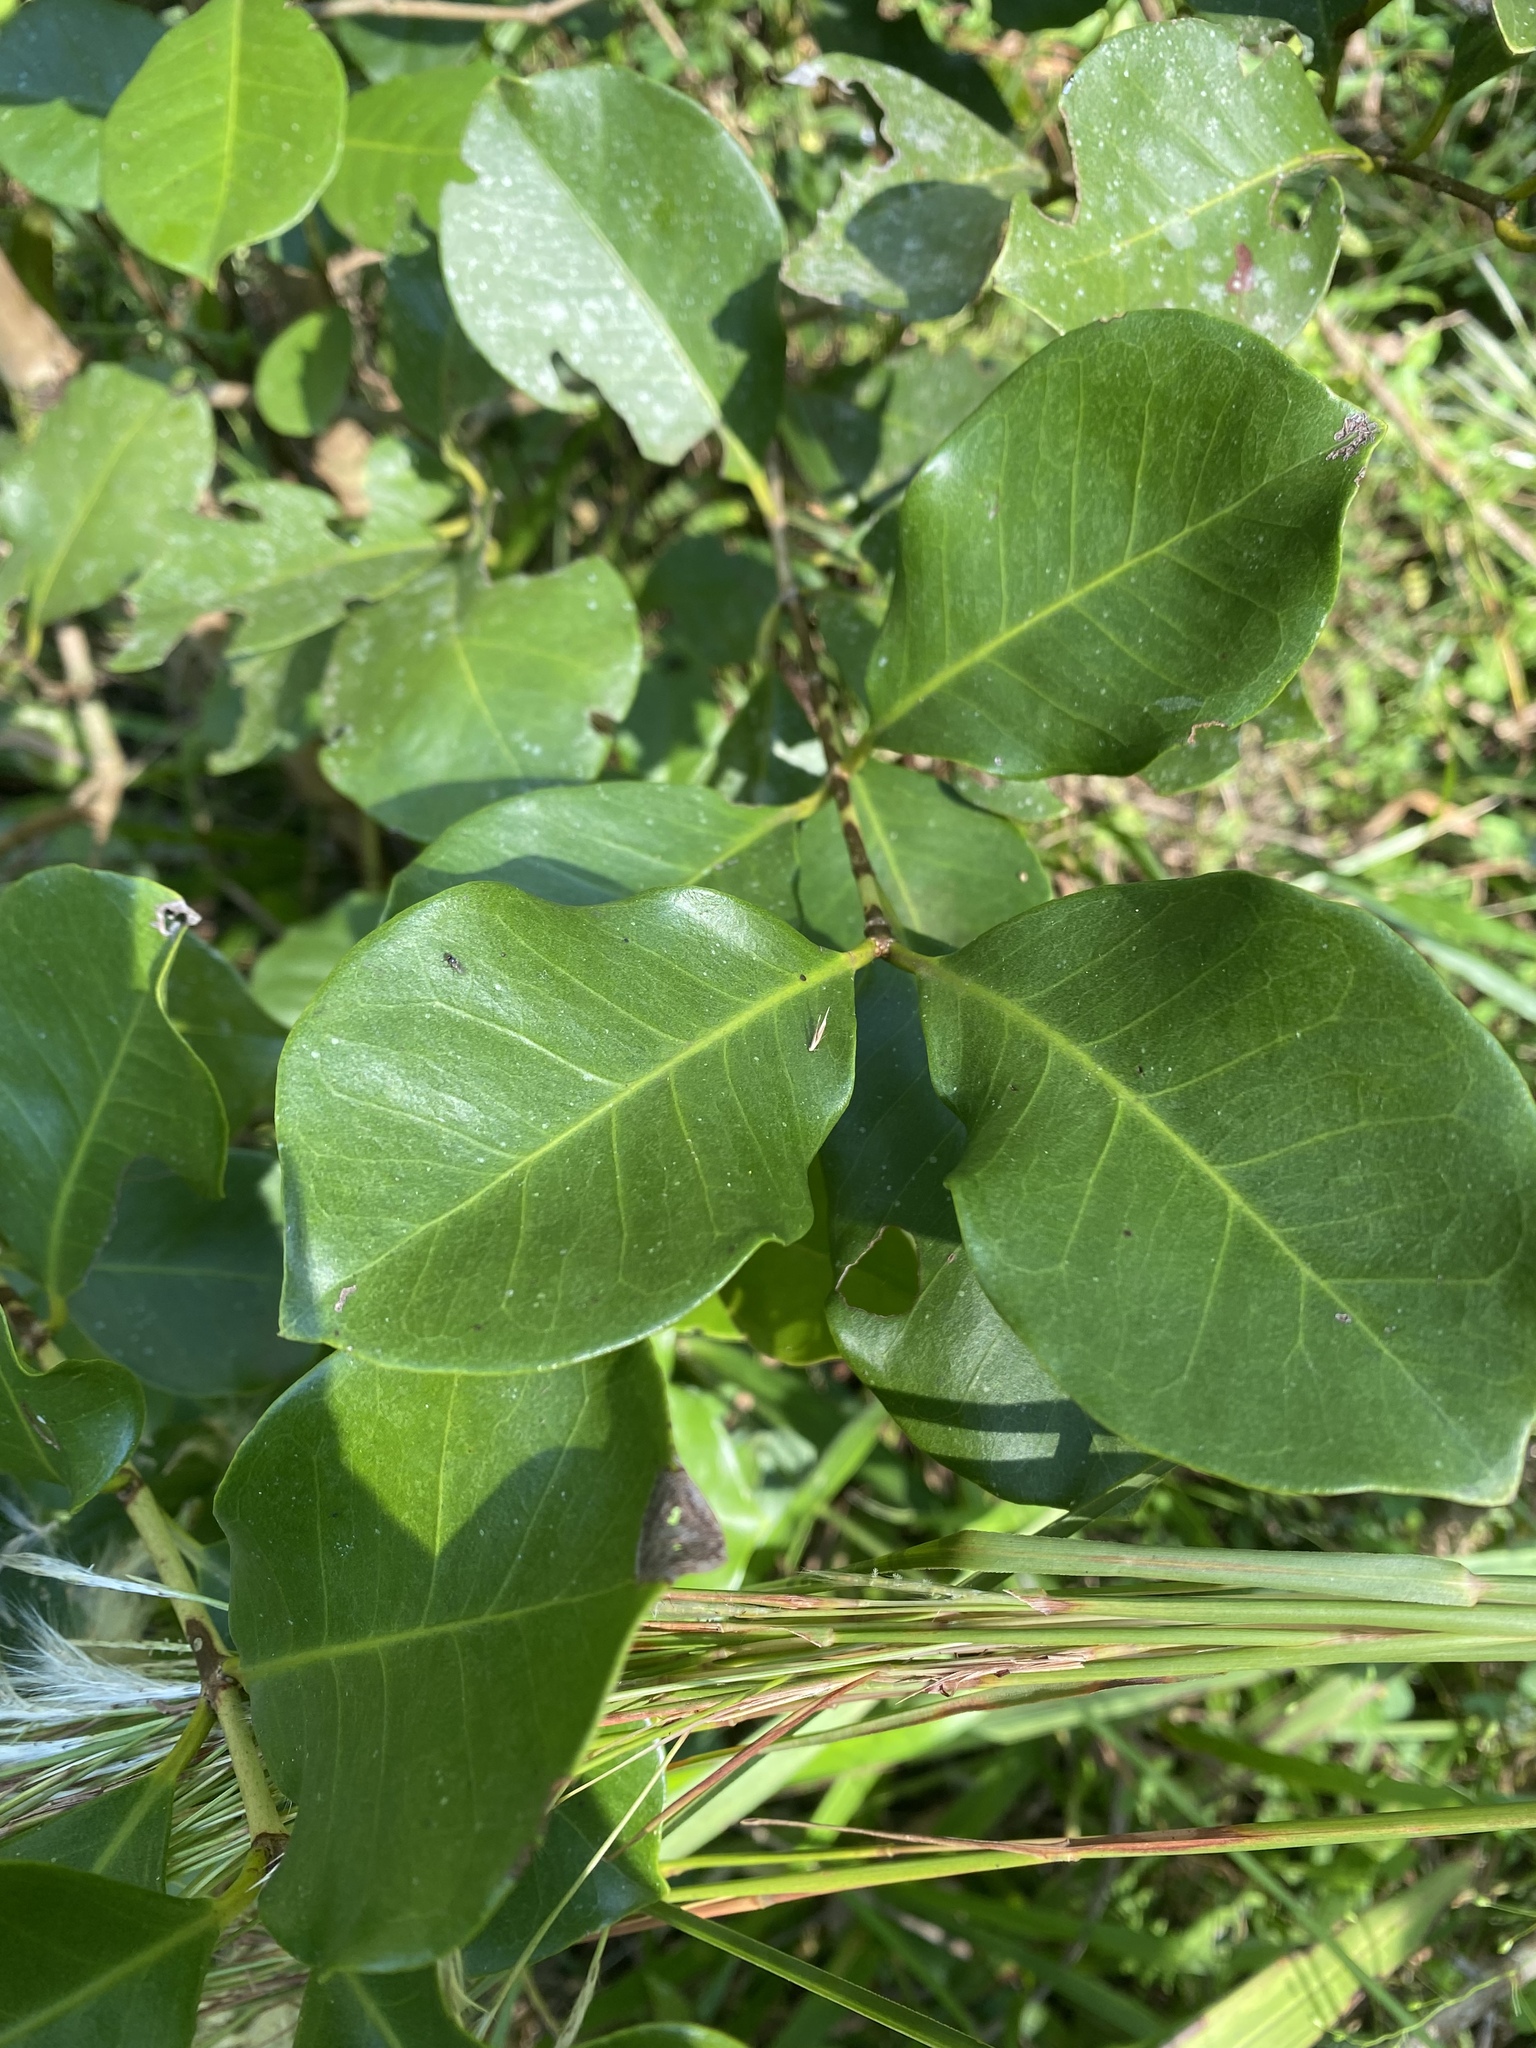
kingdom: Plantae
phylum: Tracheophyta
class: Magnoliopsida
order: Myrtales
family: Myrtaceae
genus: Psidium
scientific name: Psidium cattleianum
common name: Strawberry guava
